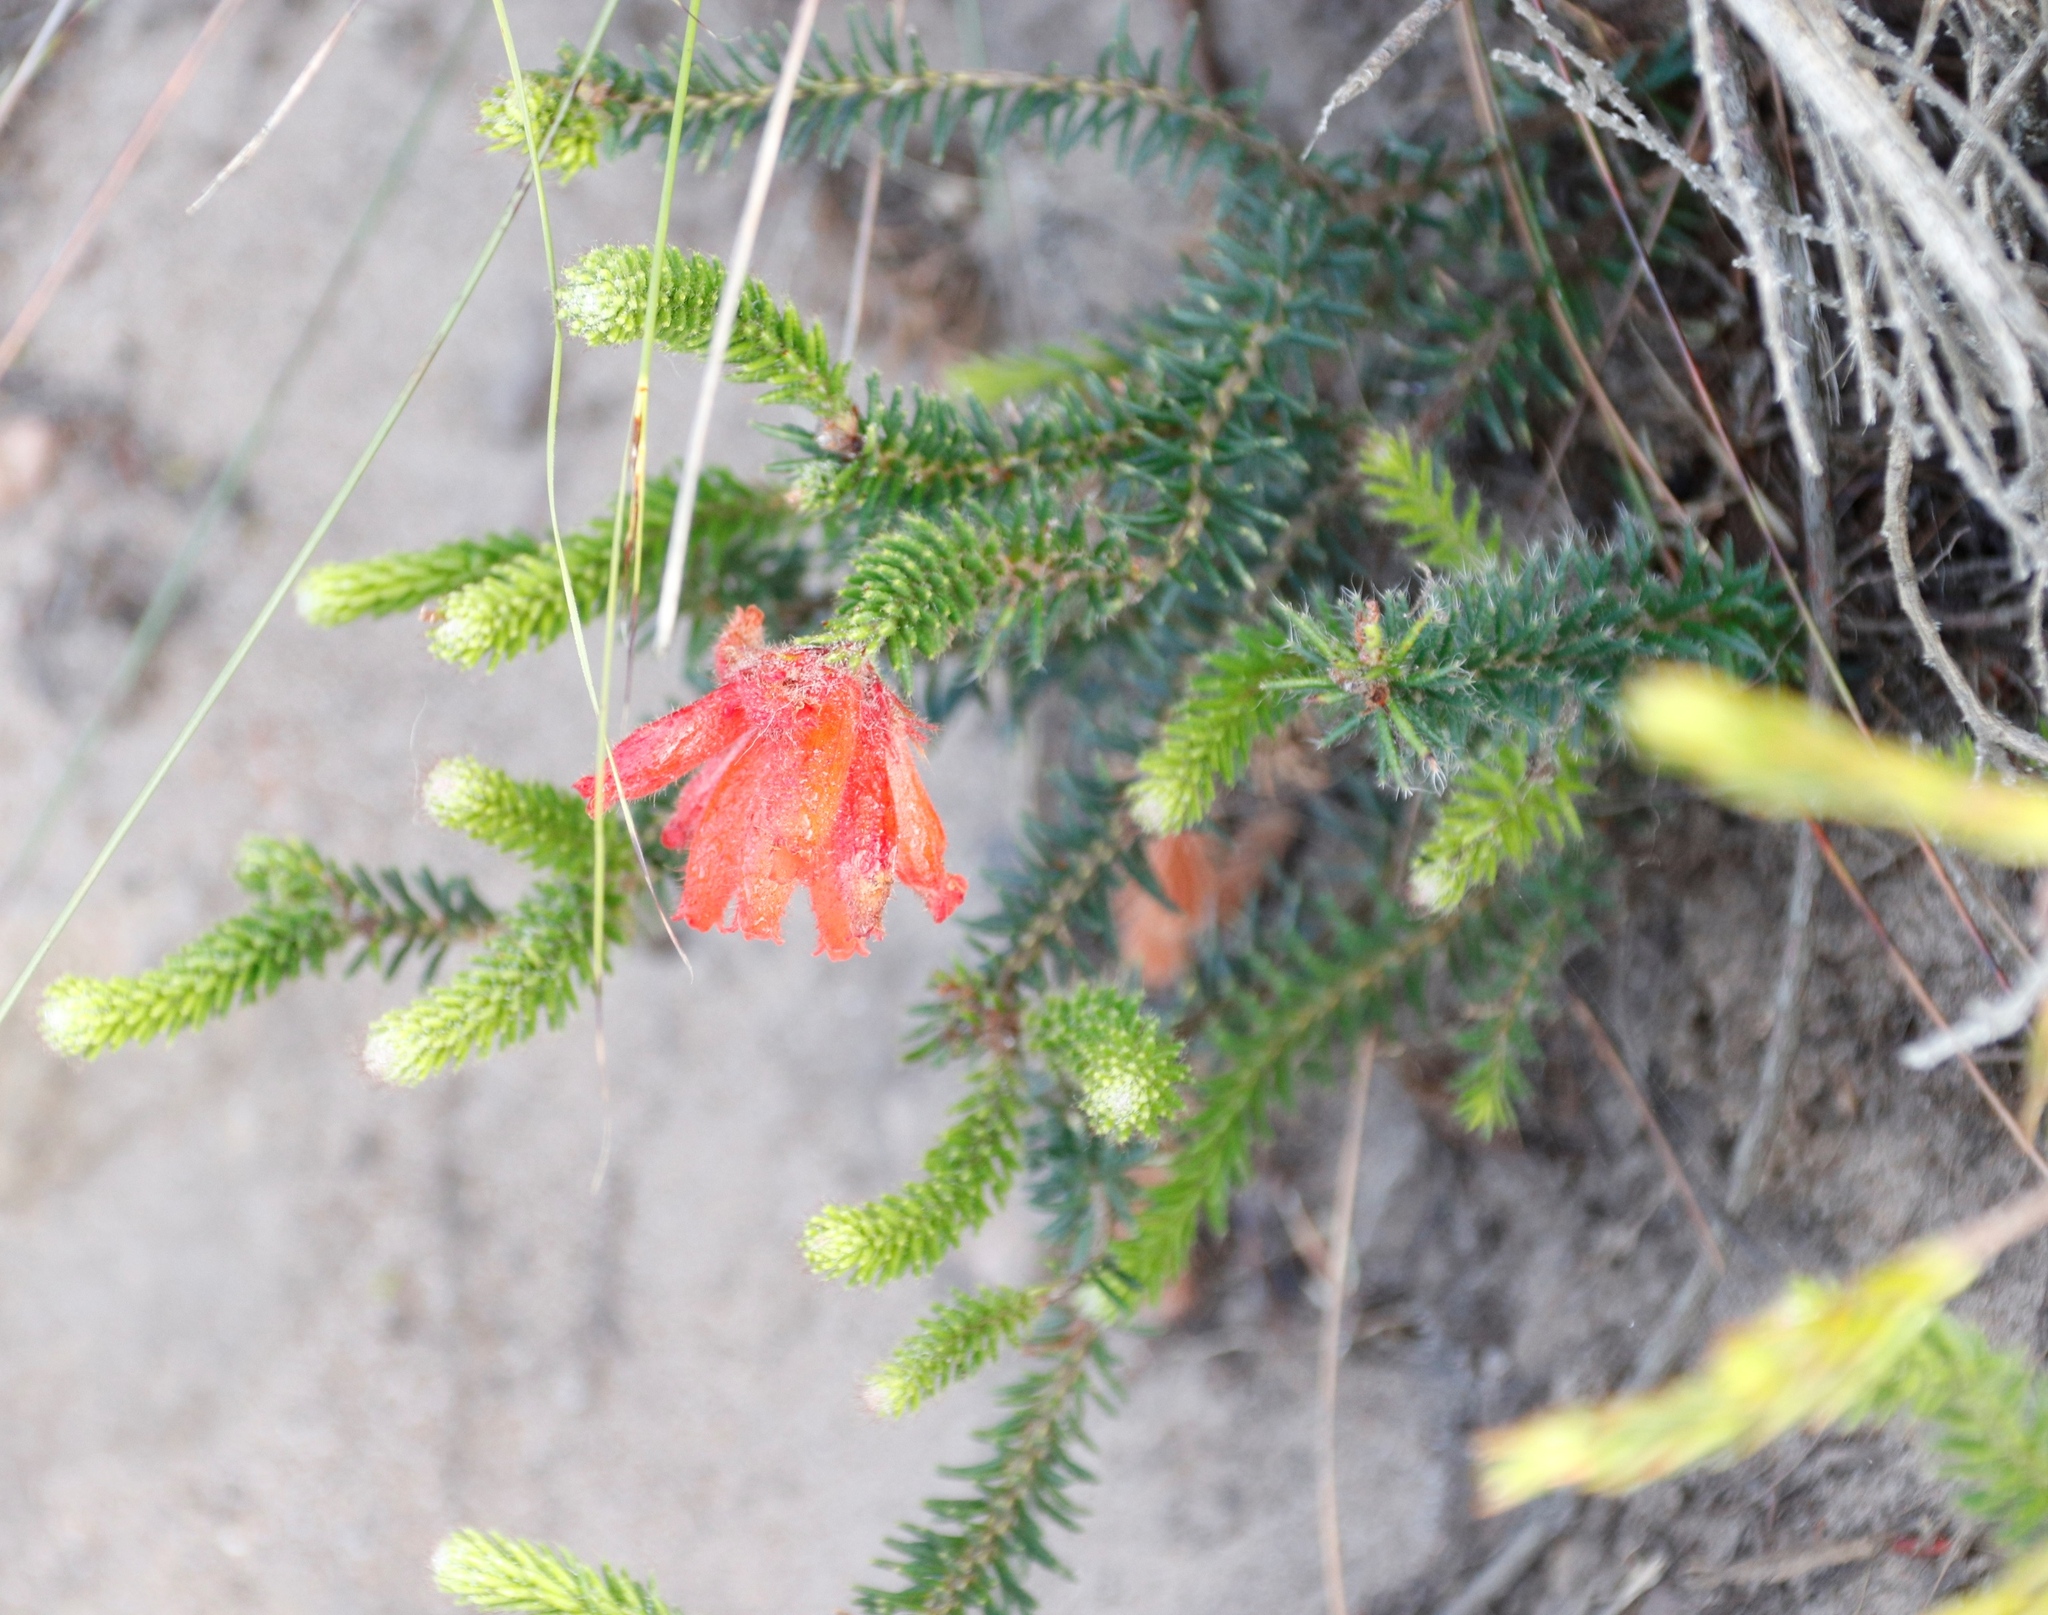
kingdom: Plantae
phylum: Tracheophyta
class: Magnoliopsida
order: Ericales
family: Ericaceae
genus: Erica
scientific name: Erica cerinthoides
